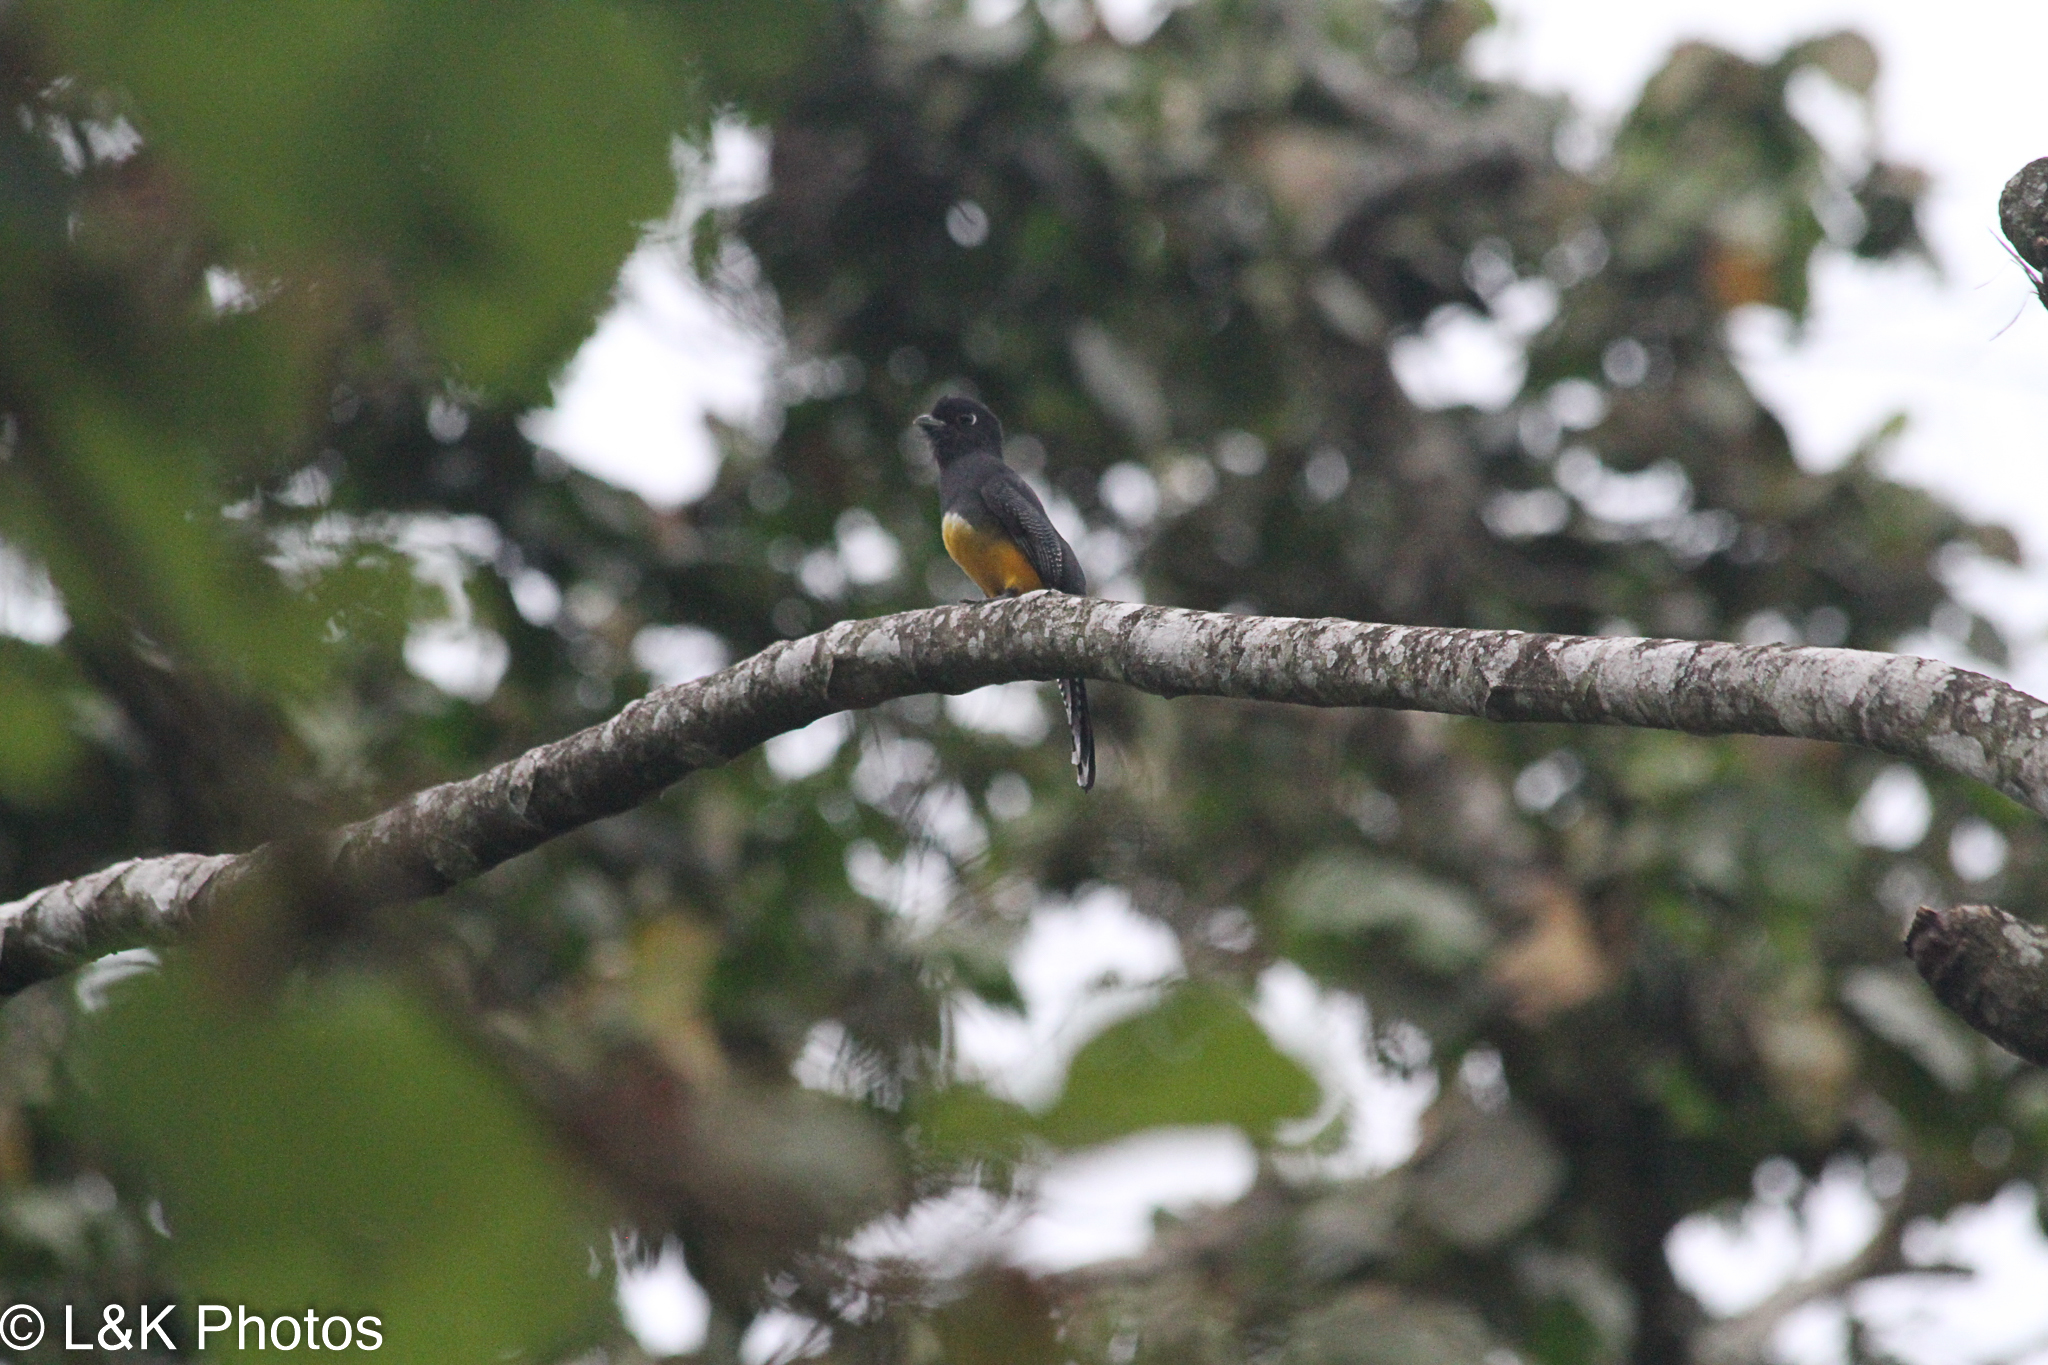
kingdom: Animalia
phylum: Chordata
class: Aves
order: Trogoniformes
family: Trogonidae
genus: Trogon
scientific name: Trogon caligatus
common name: Gartered trogon
